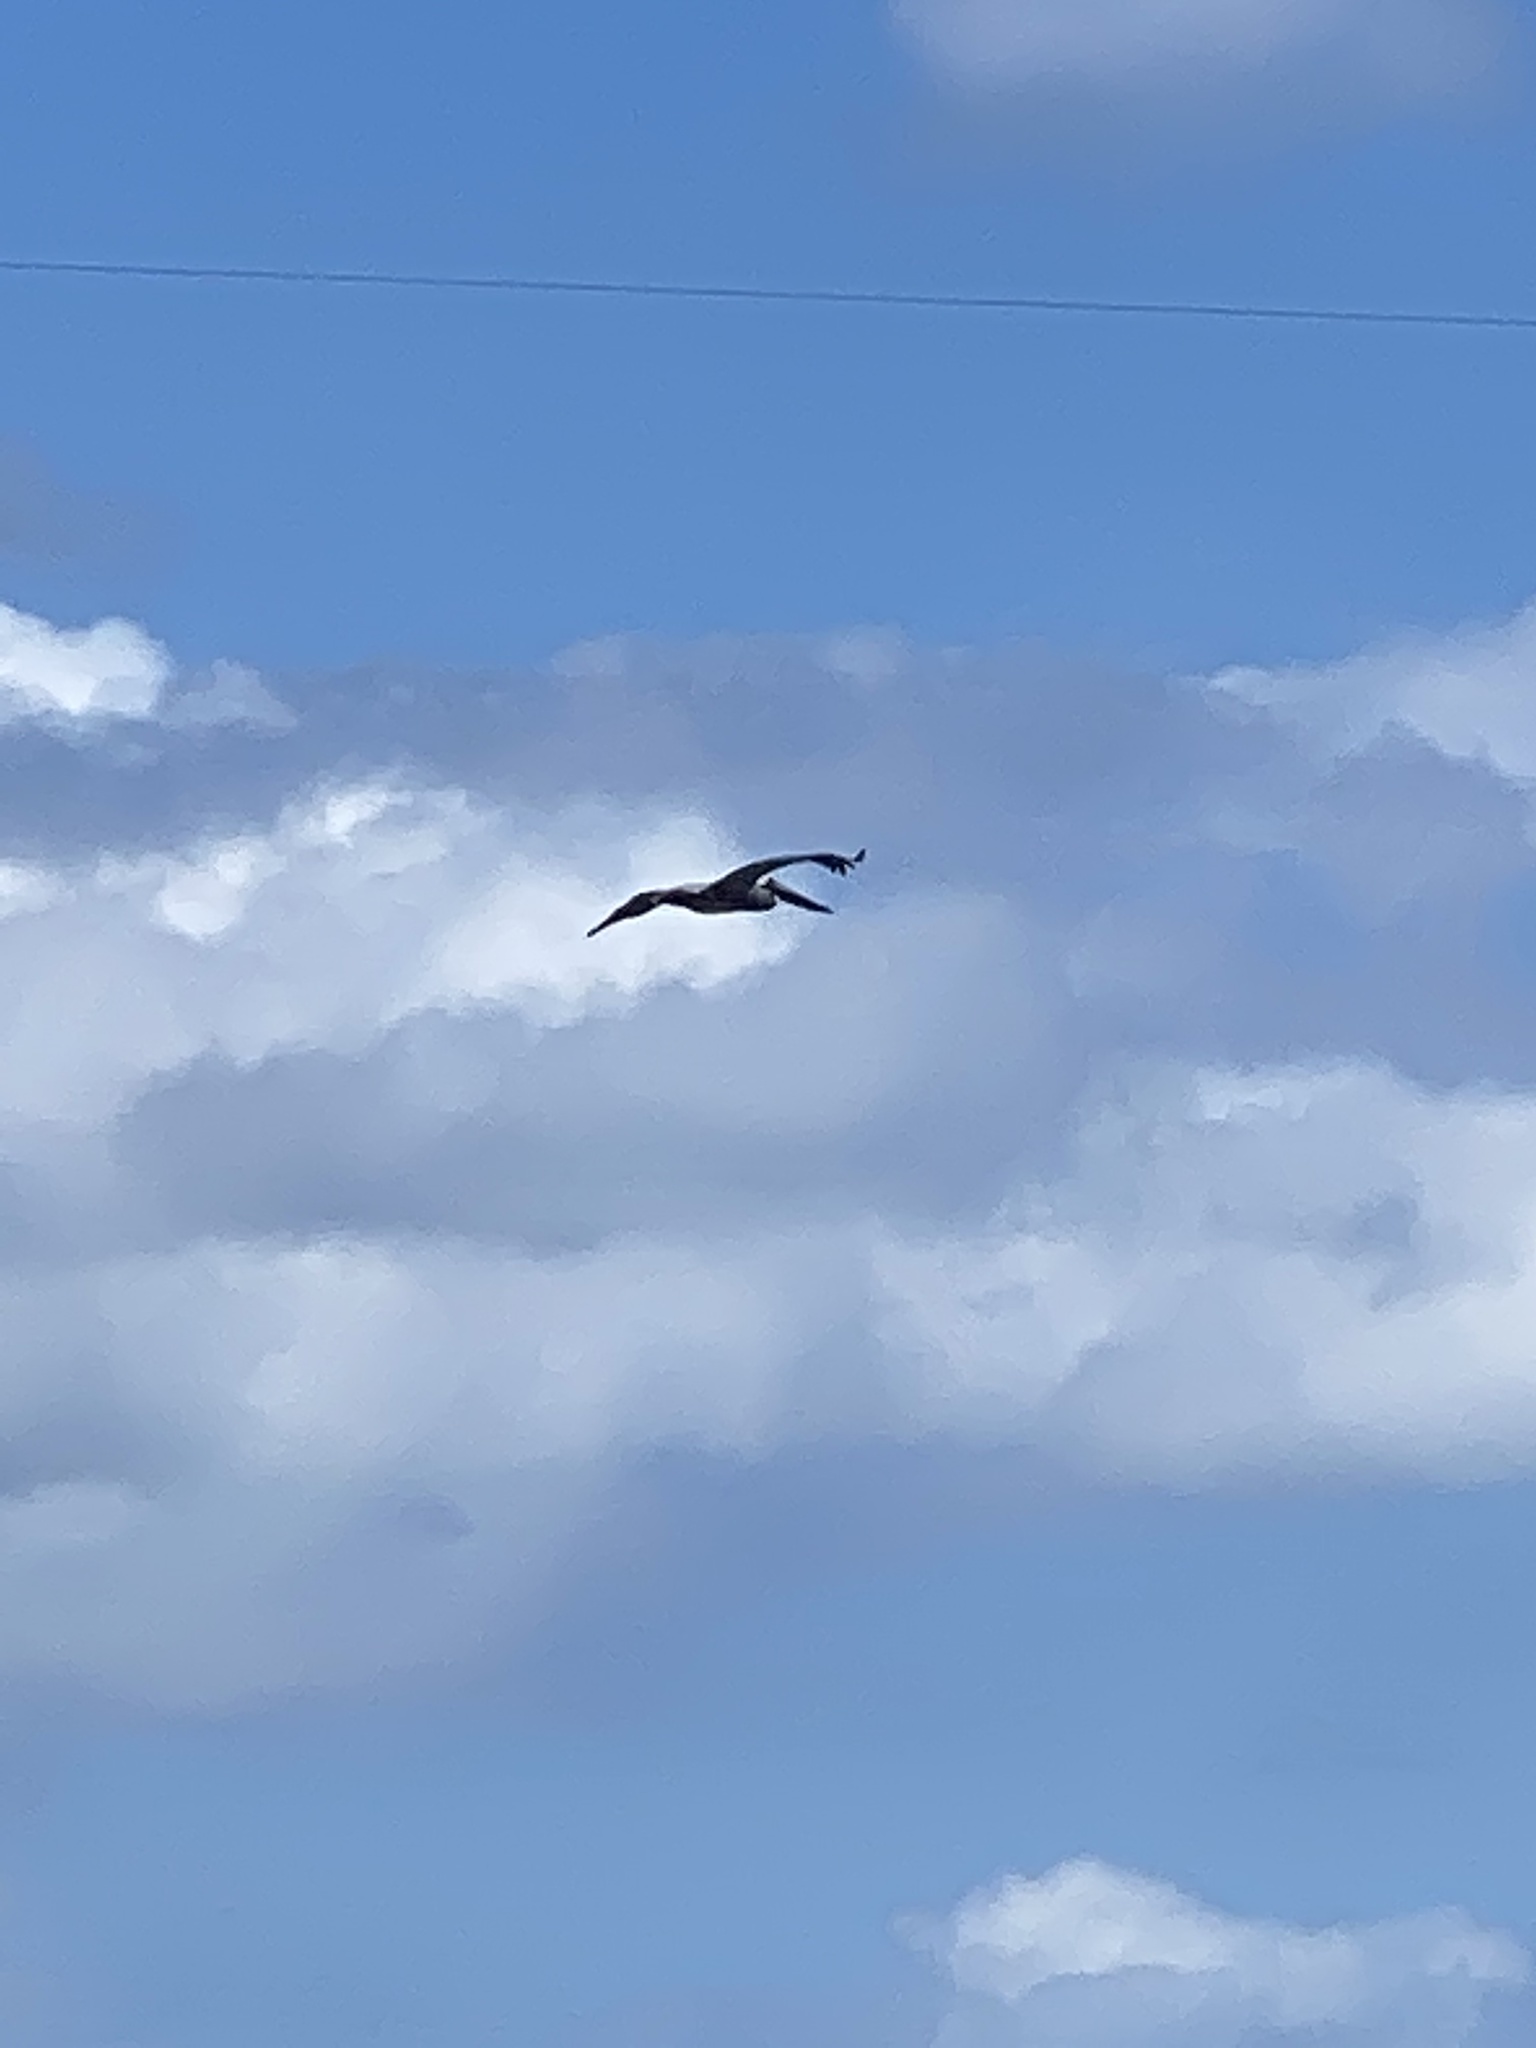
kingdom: Animalia
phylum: Chordata
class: Aves
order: Pelecaniformes
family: Pelecanidae
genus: Pelecanus
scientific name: Pelecanus occidentalis
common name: Brown pelican
